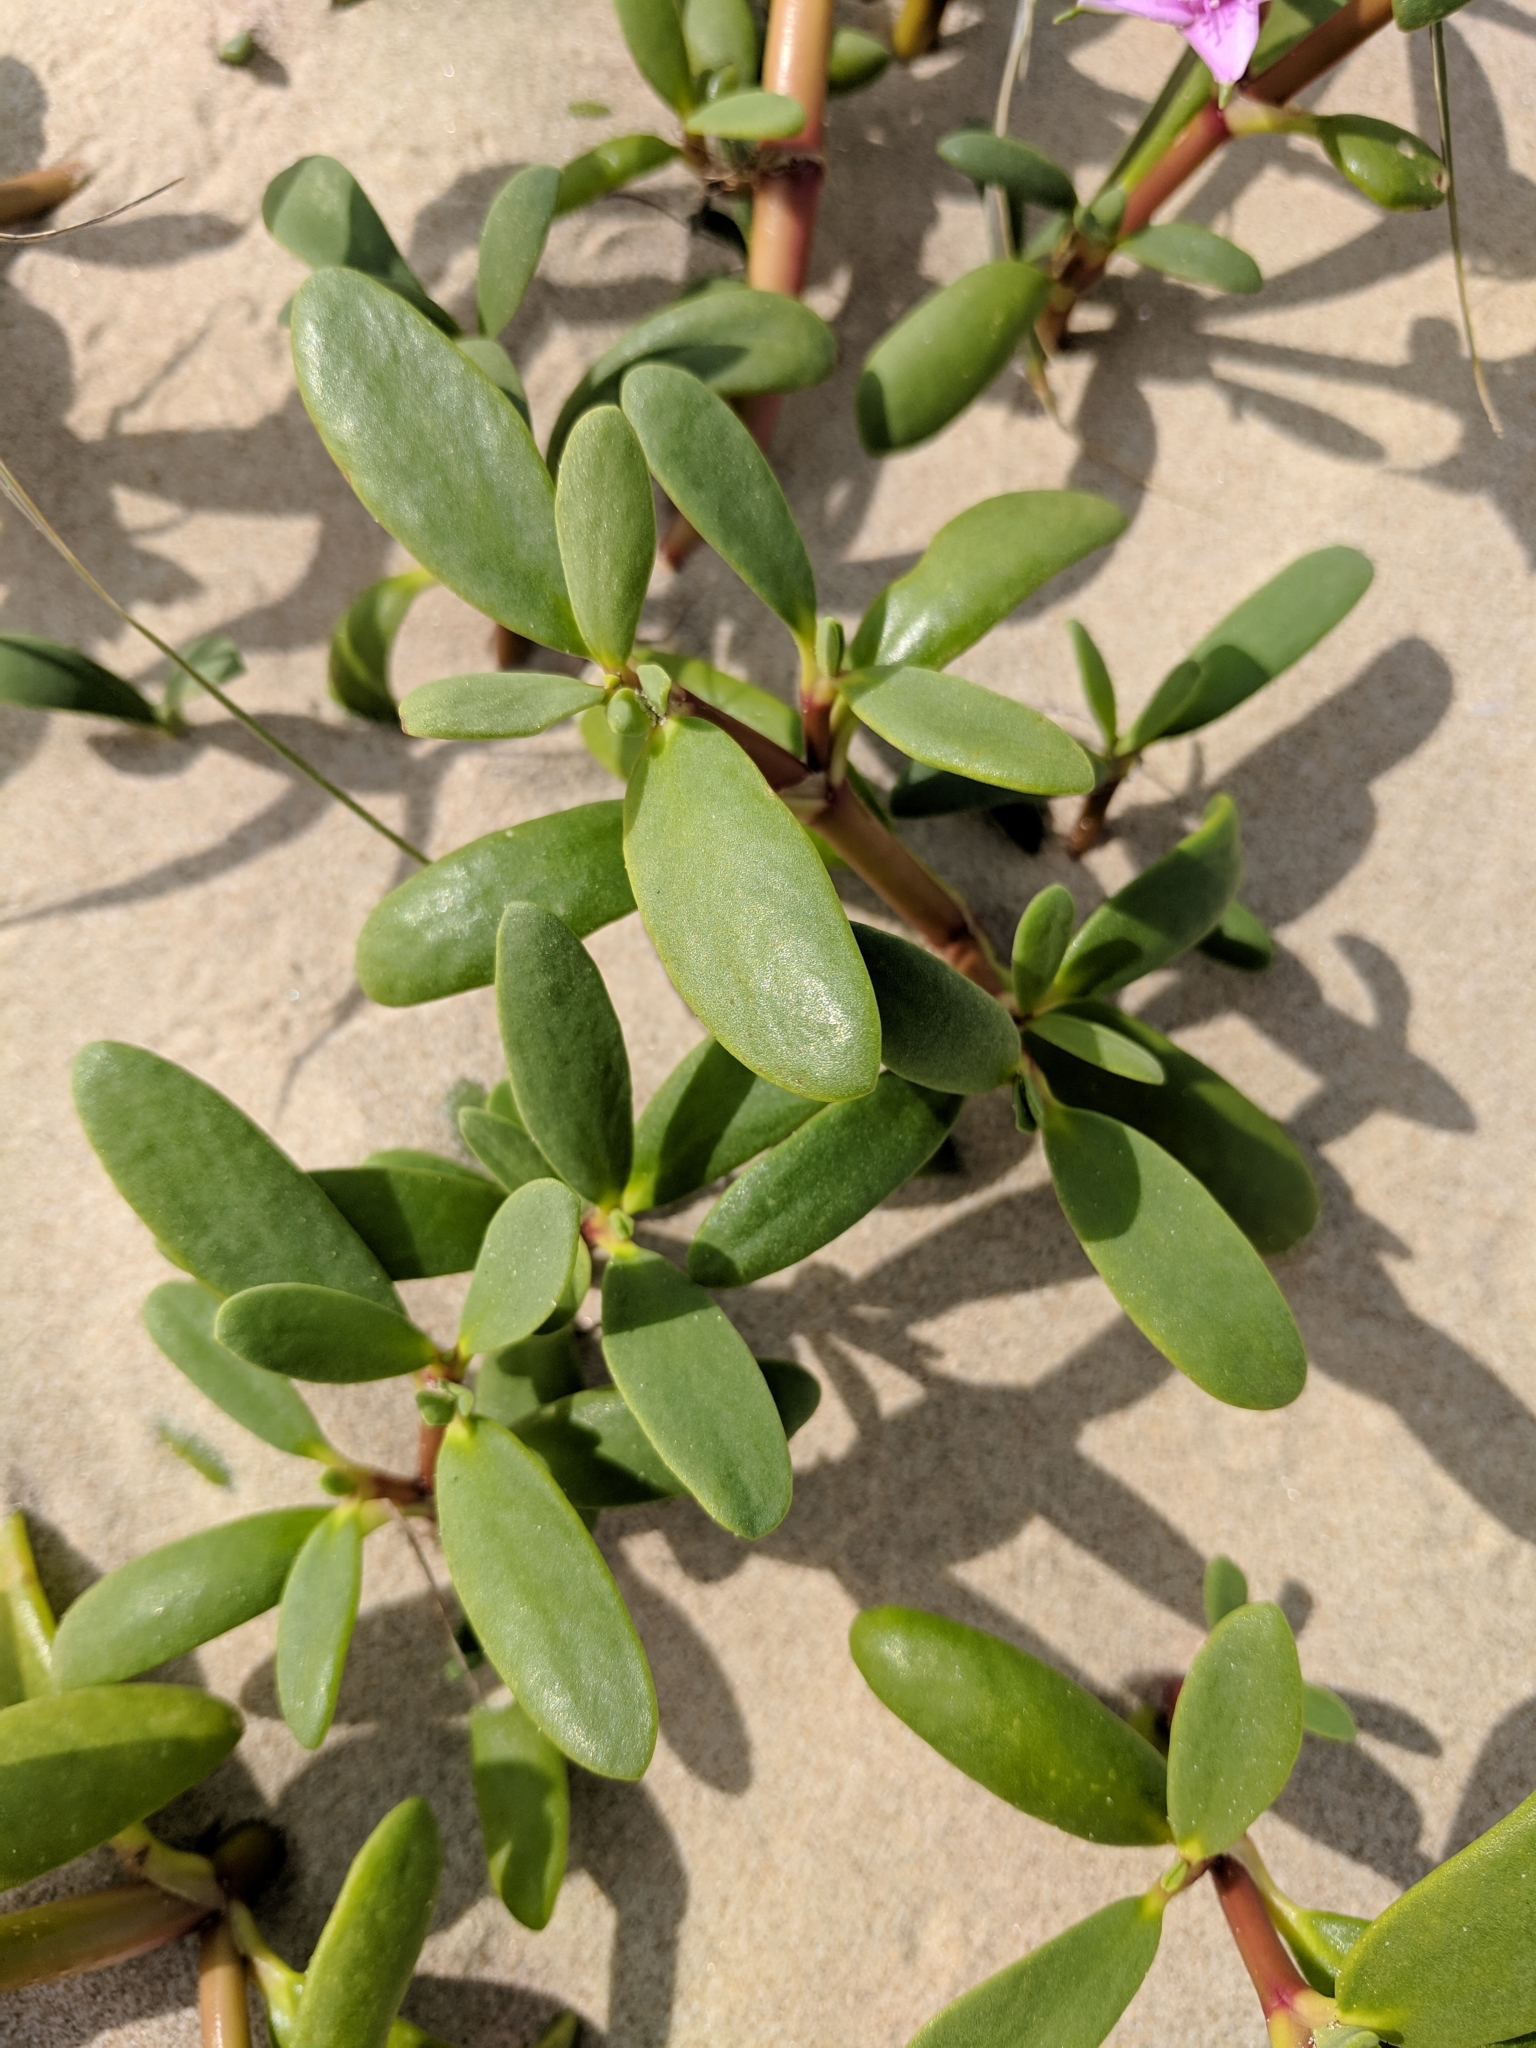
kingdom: Plantae
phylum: Tracheophyta
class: Magnoliopsida
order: Caryophyllales
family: Aizoaceae
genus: Sesuvium
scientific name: Sesuvium portulacastrum
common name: Sea-purslane
